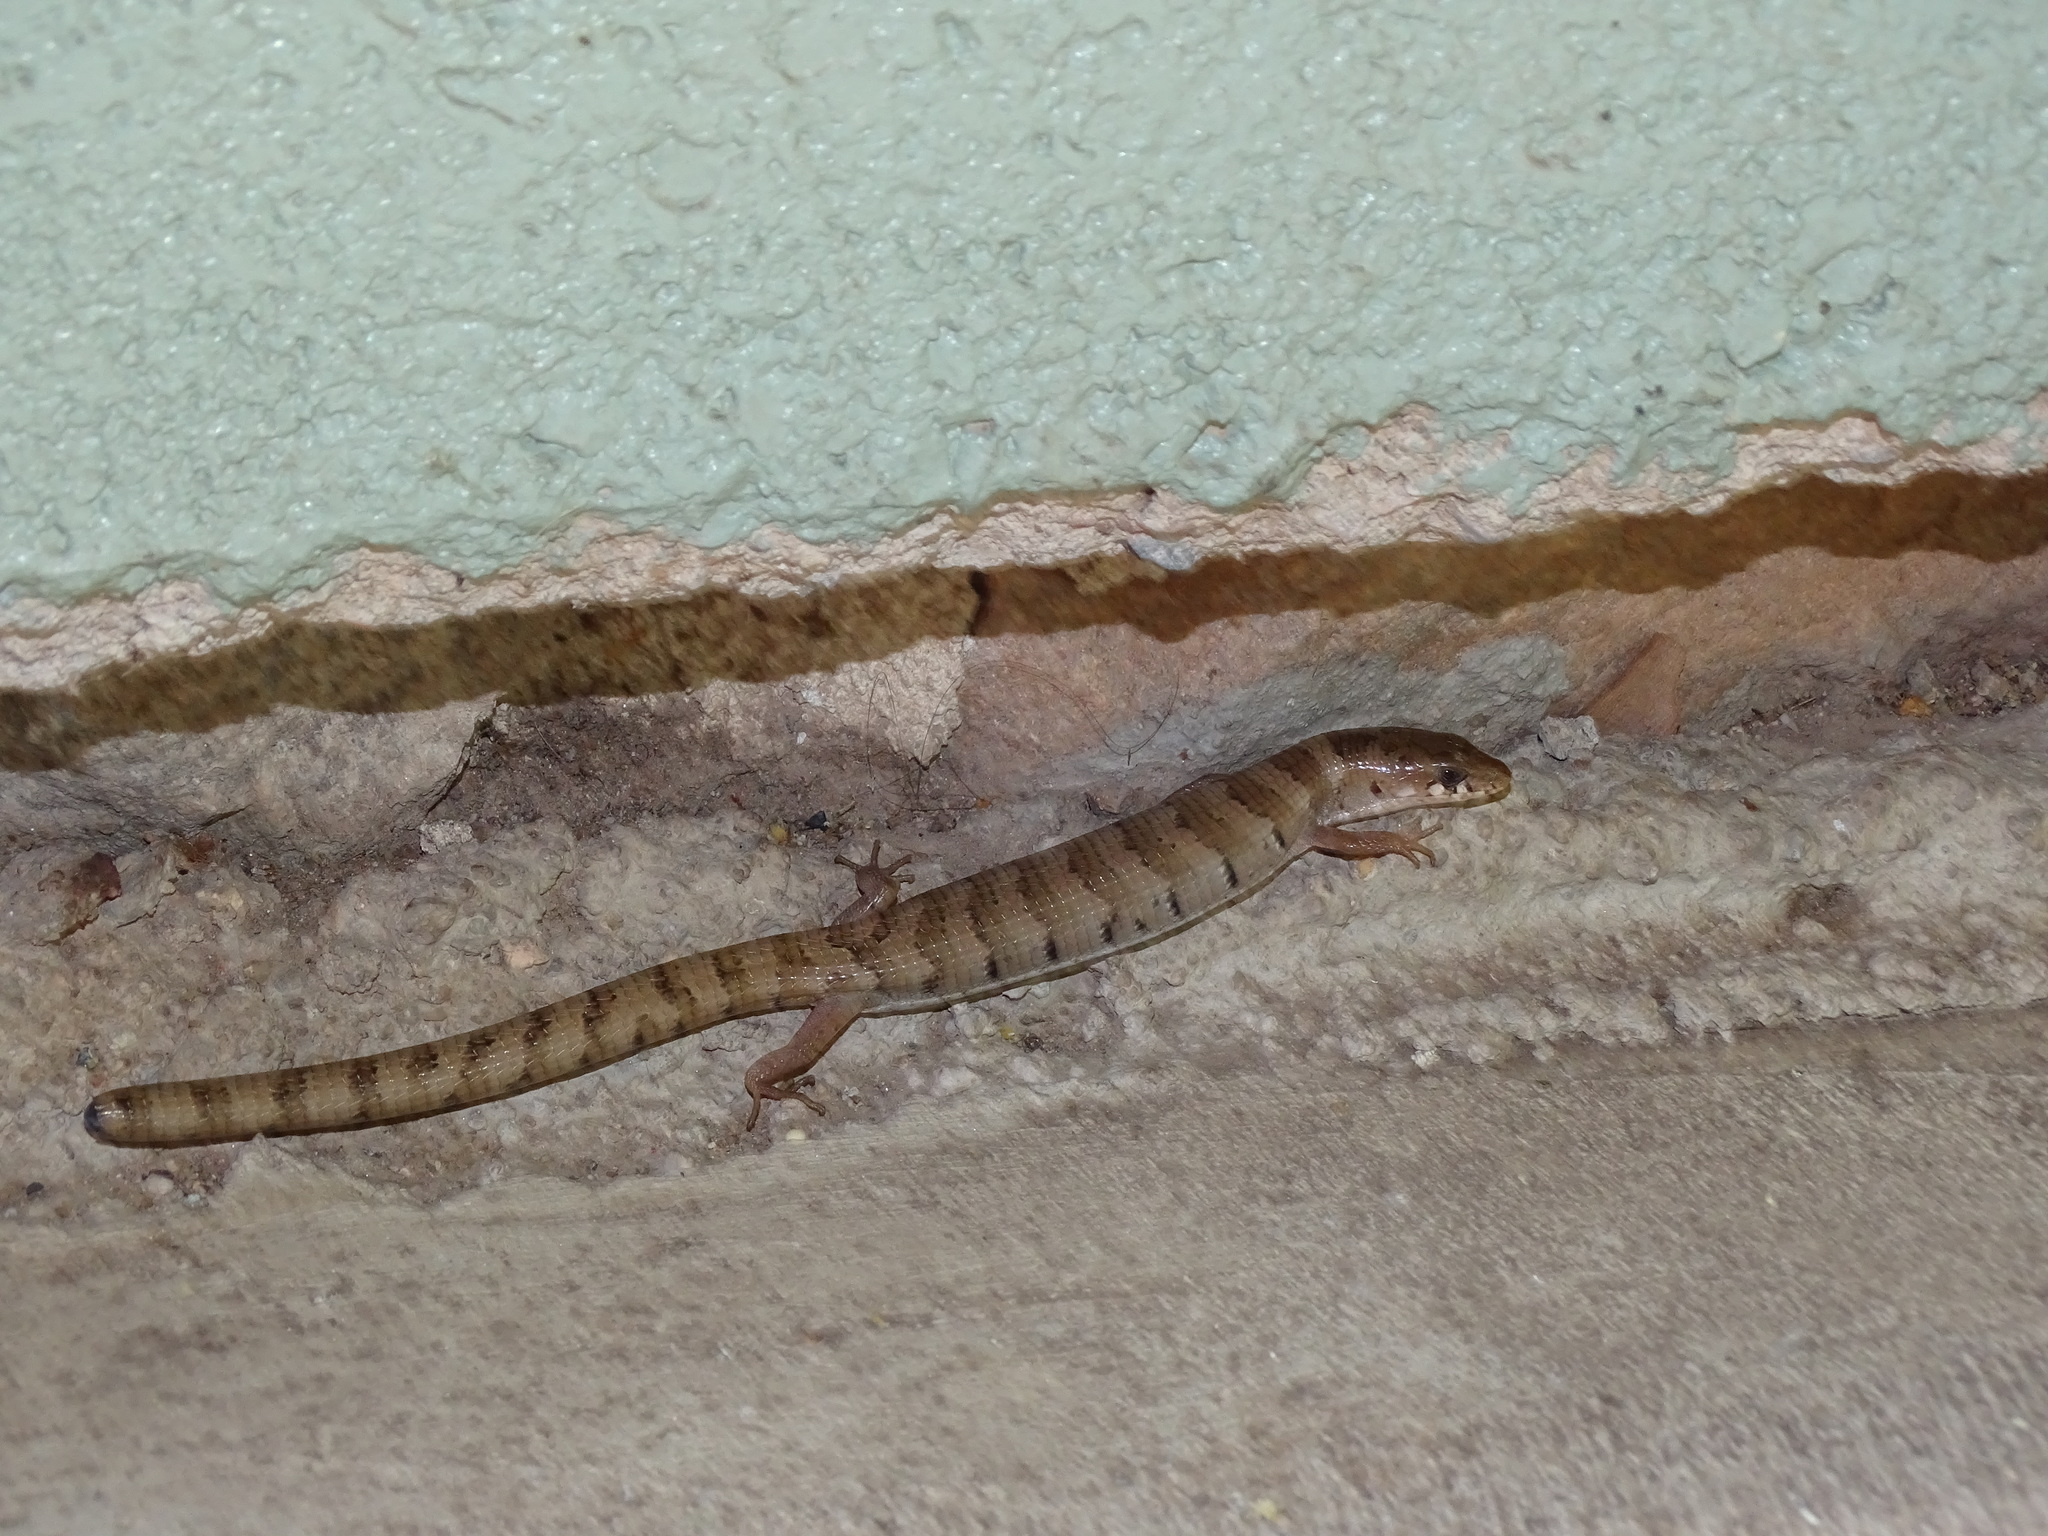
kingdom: Animalia
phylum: Chordata
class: Squamata
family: Anguidae
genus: Elgaria
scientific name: Elgaria kingii
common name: Madrean alligator lizard
